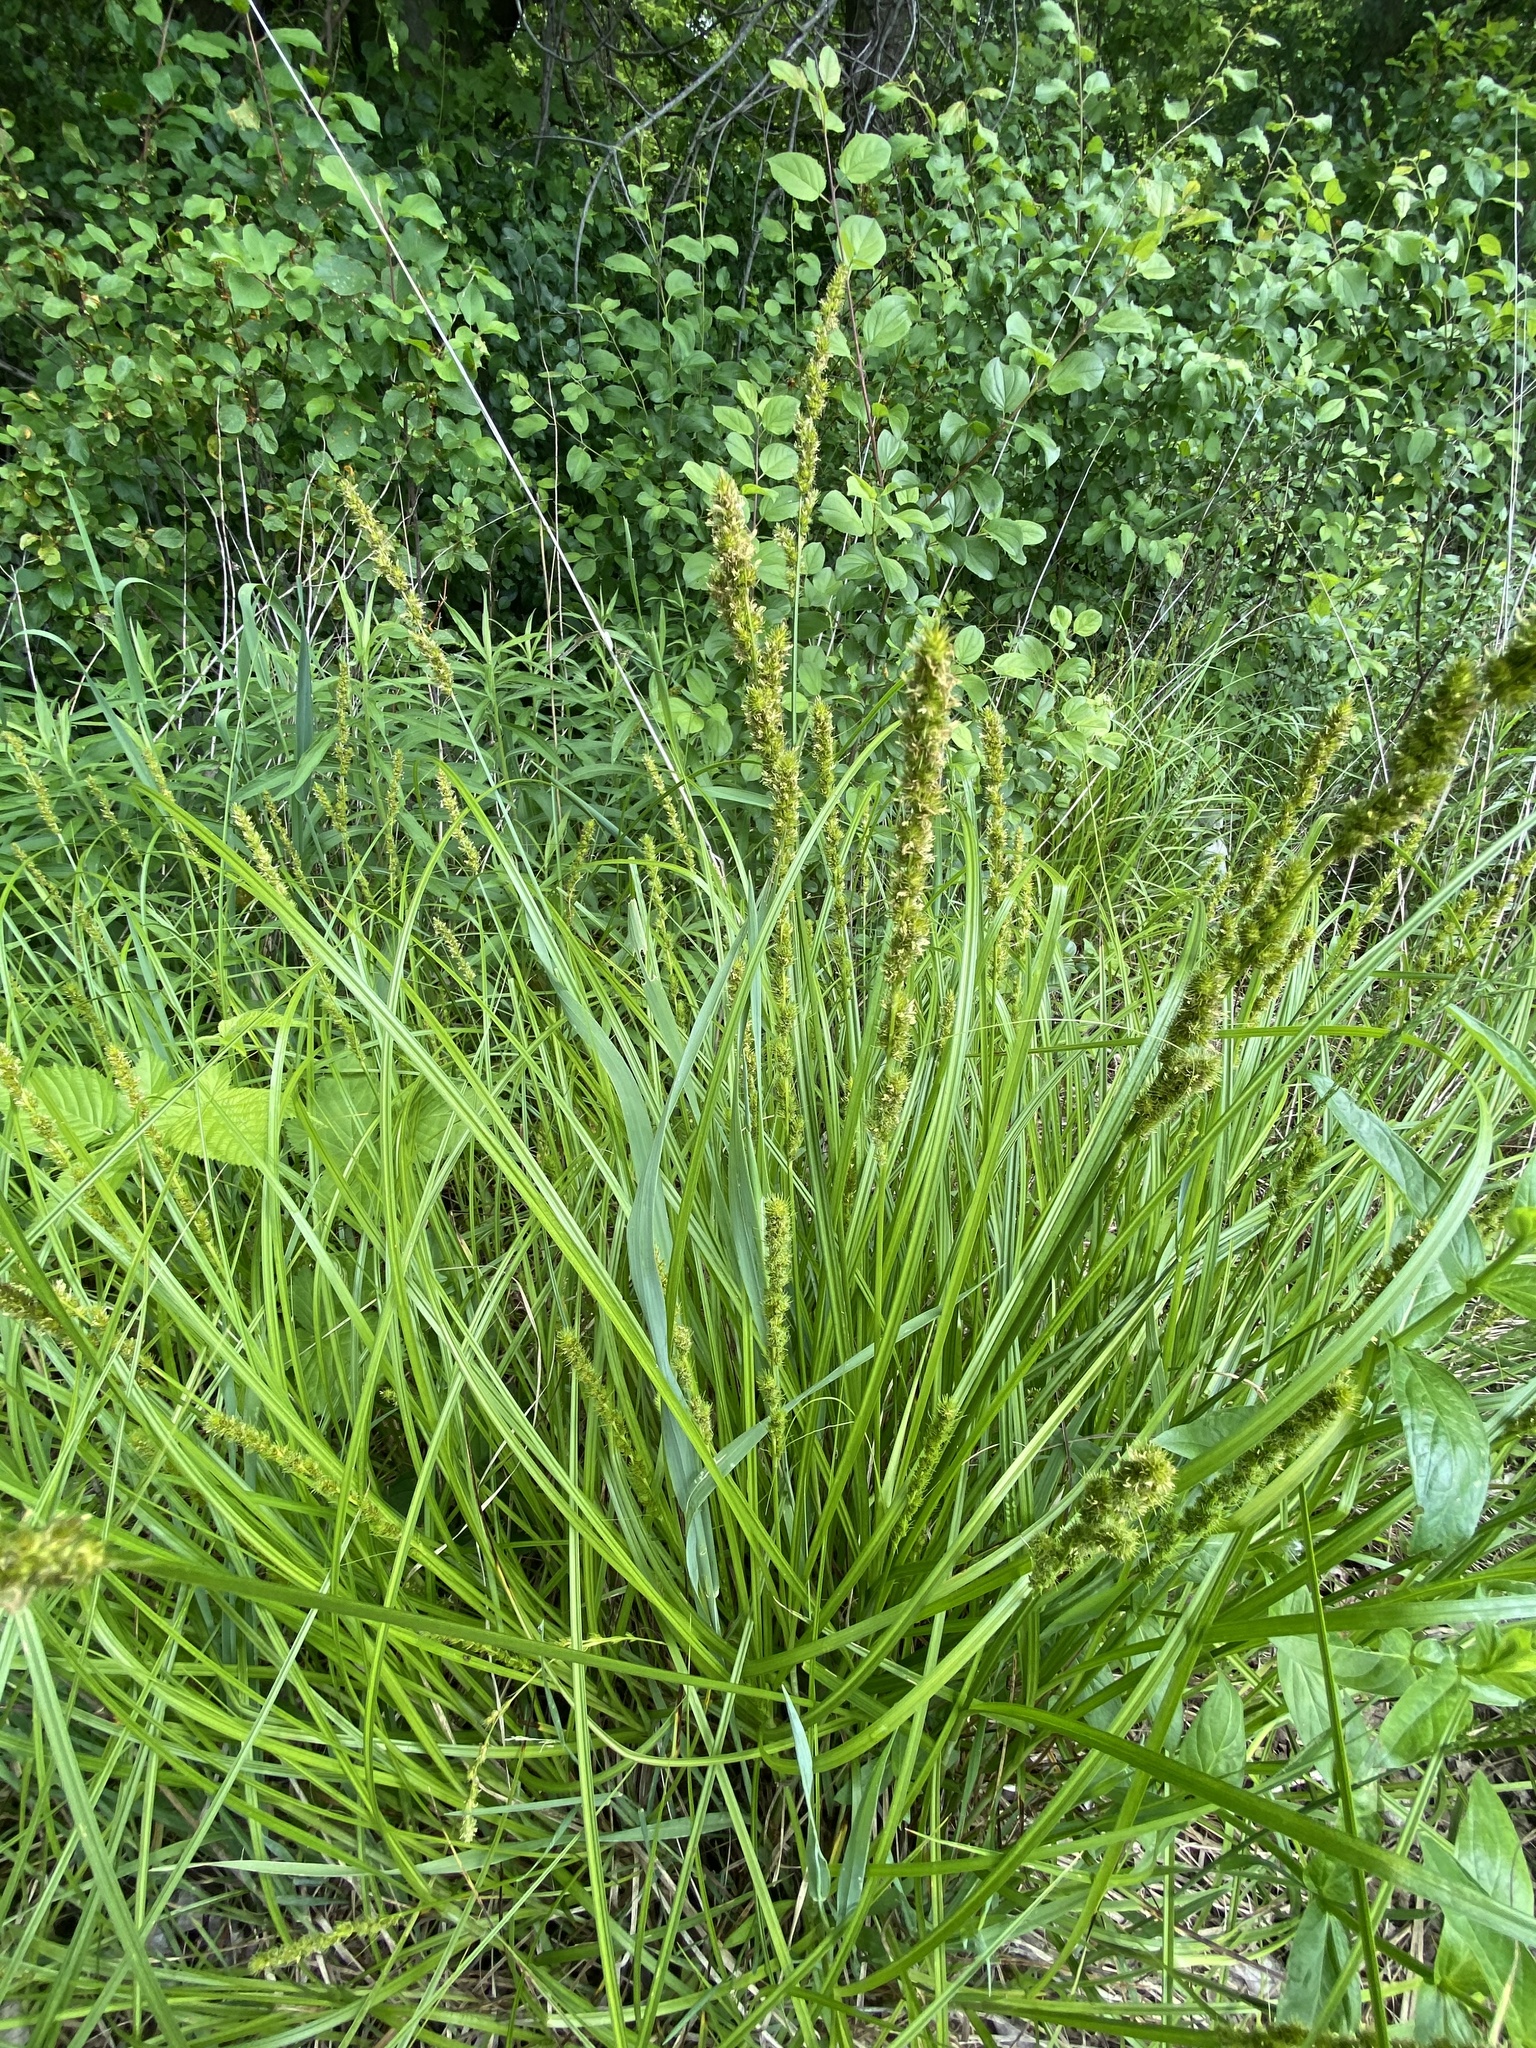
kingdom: Plantae
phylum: Tracheophyta
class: Liliopsida
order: Poales
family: Cyperaceae
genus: Carex
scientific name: Carex vulpinoidea
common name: American fox-sedge
